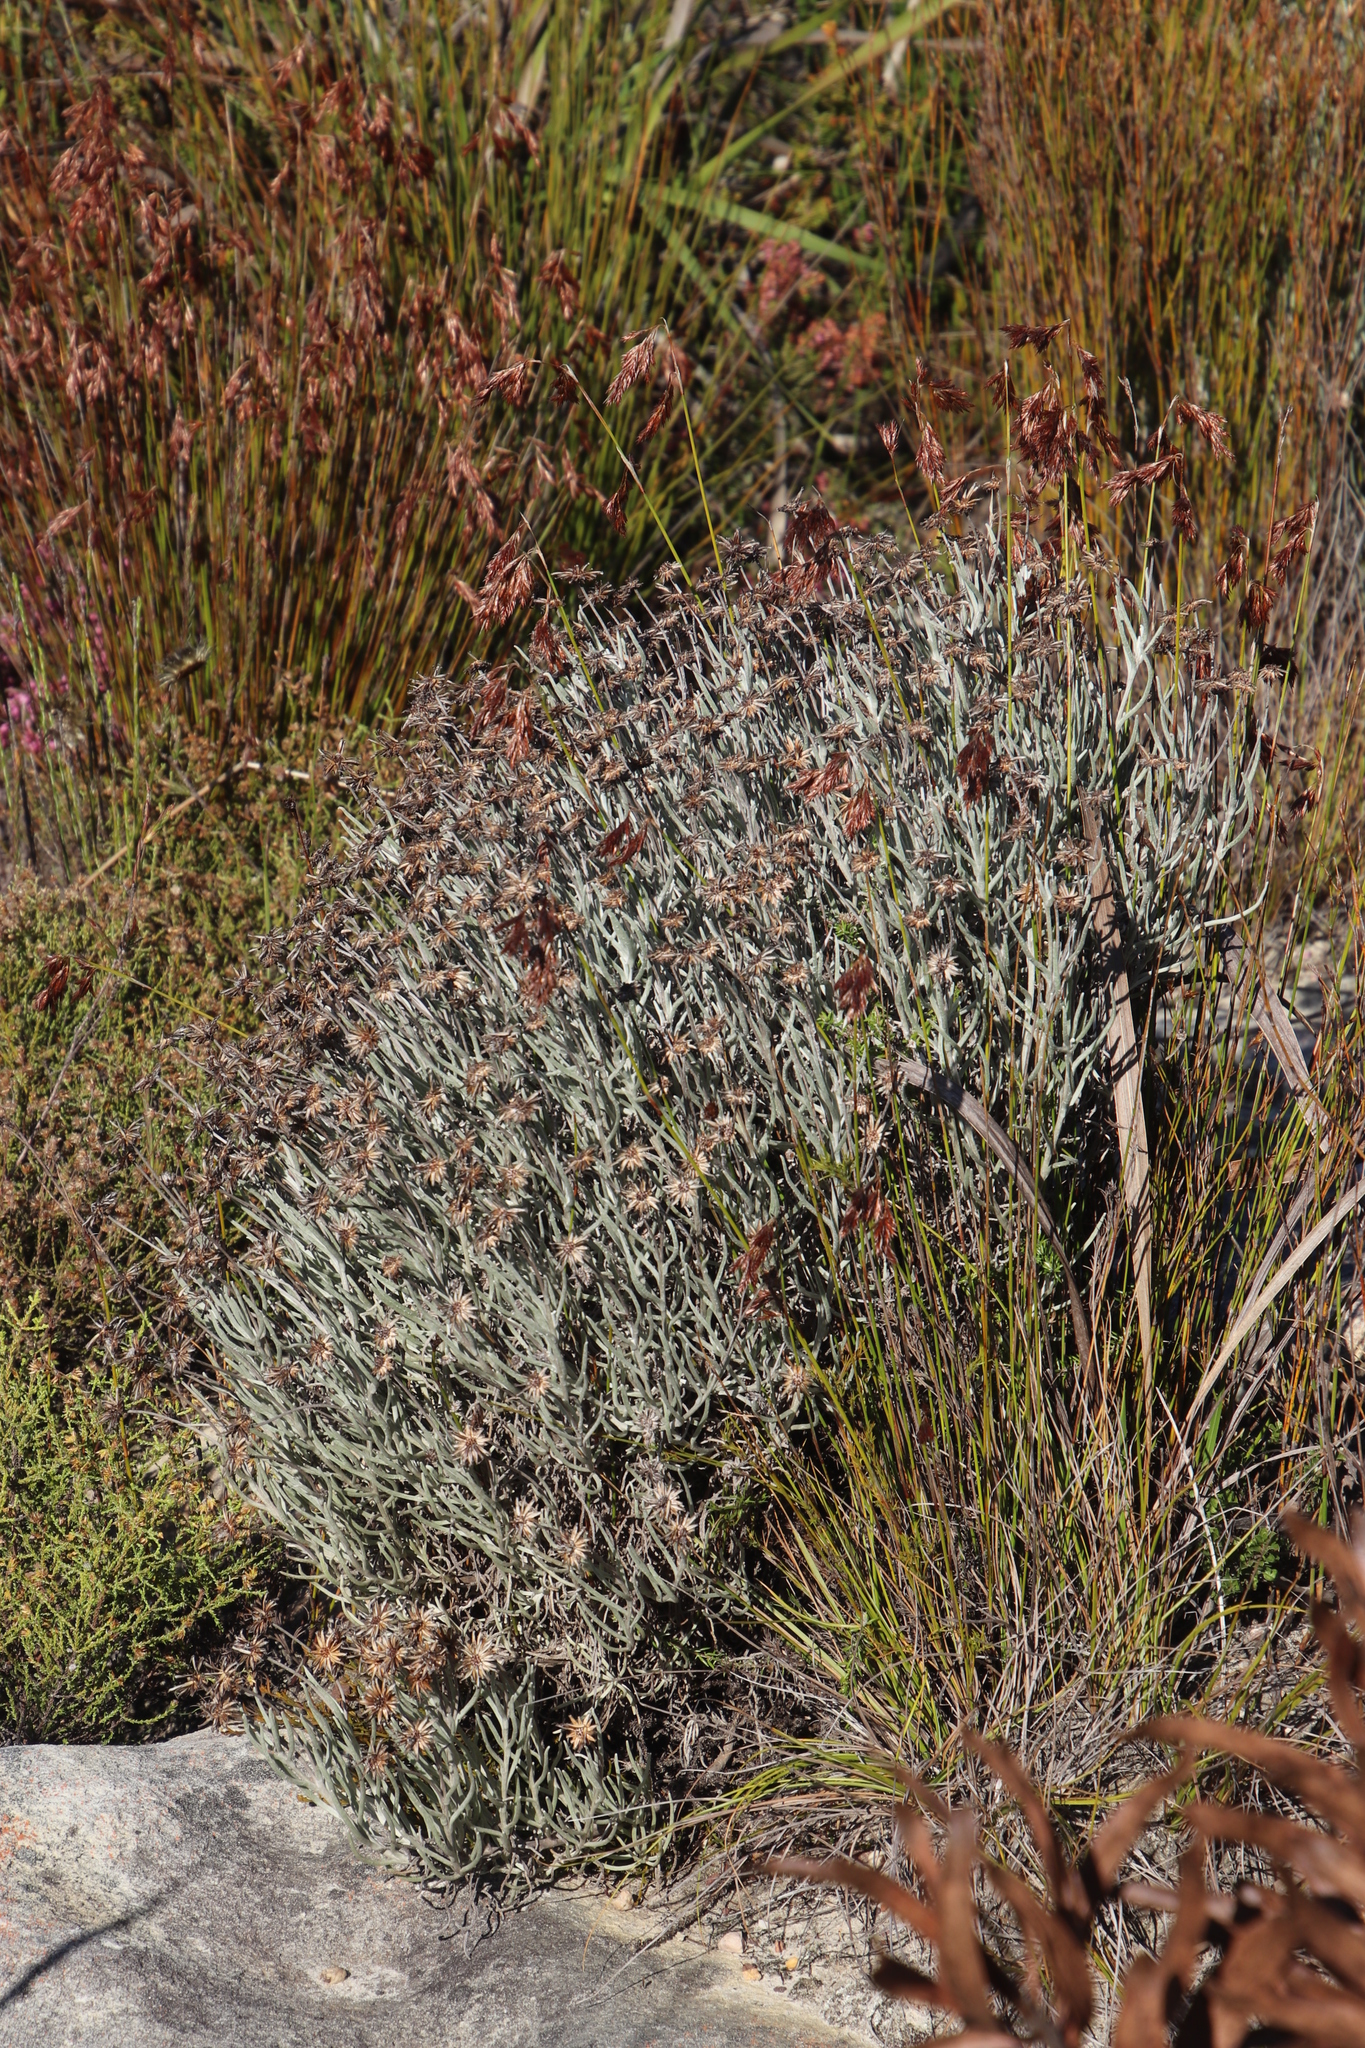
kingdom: Plantae
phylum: Tracheophyta
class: Magnoliopsida
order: Asterales
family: Asteraceae
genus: Syncarpha
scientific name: Syncarpha gnaphaloides
